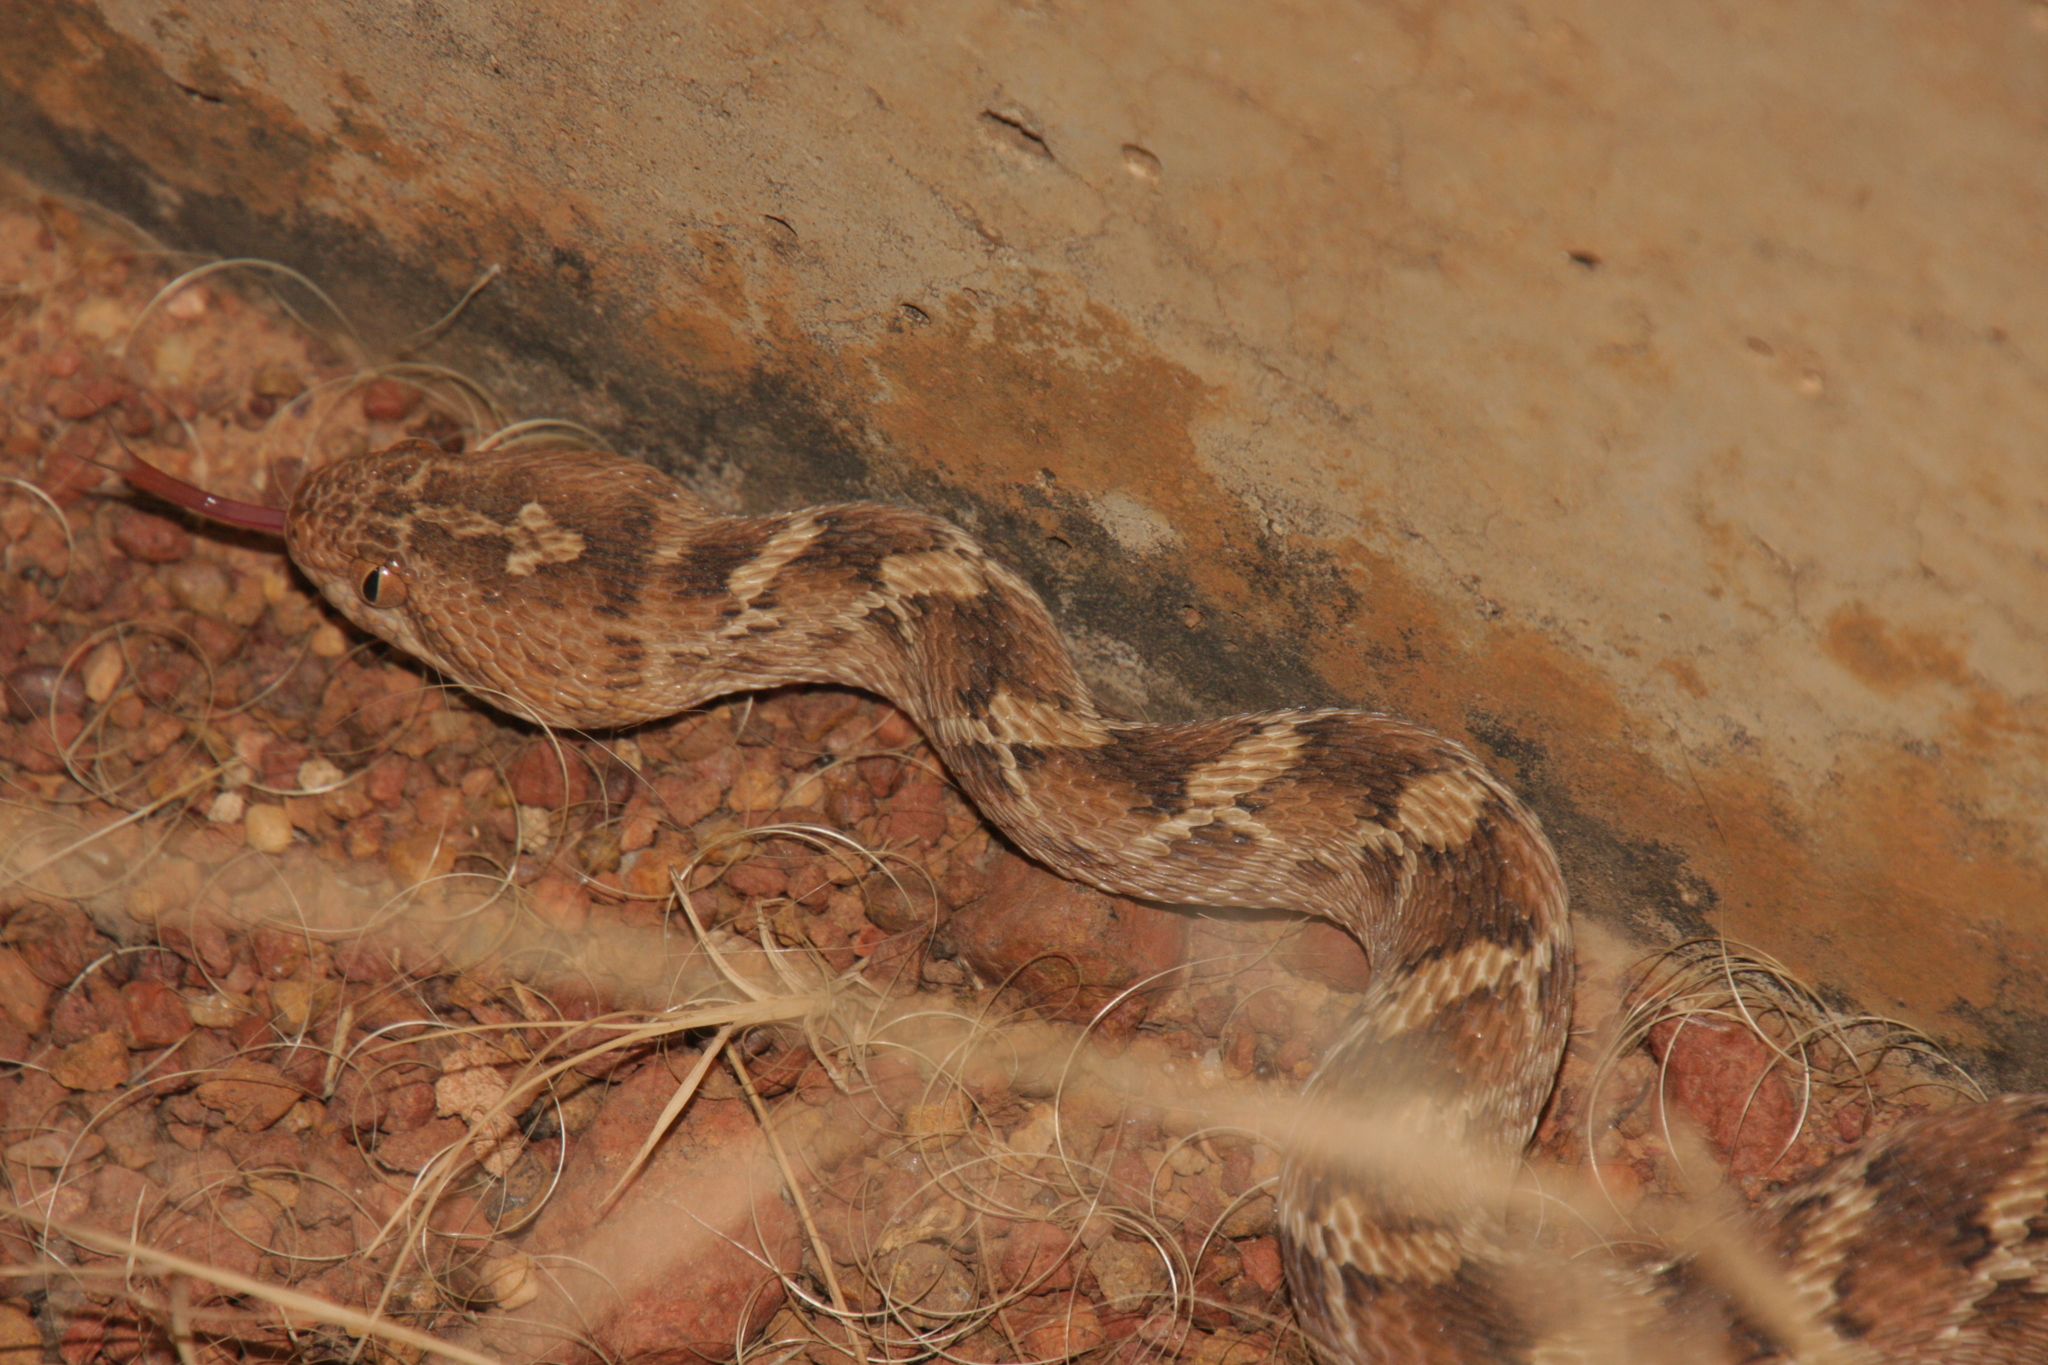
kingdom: Animalia
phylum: Chordata
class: Squamata
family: Viperidae
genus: Echis
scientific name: Echis leucogaster
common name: White-bellied carpet viper
